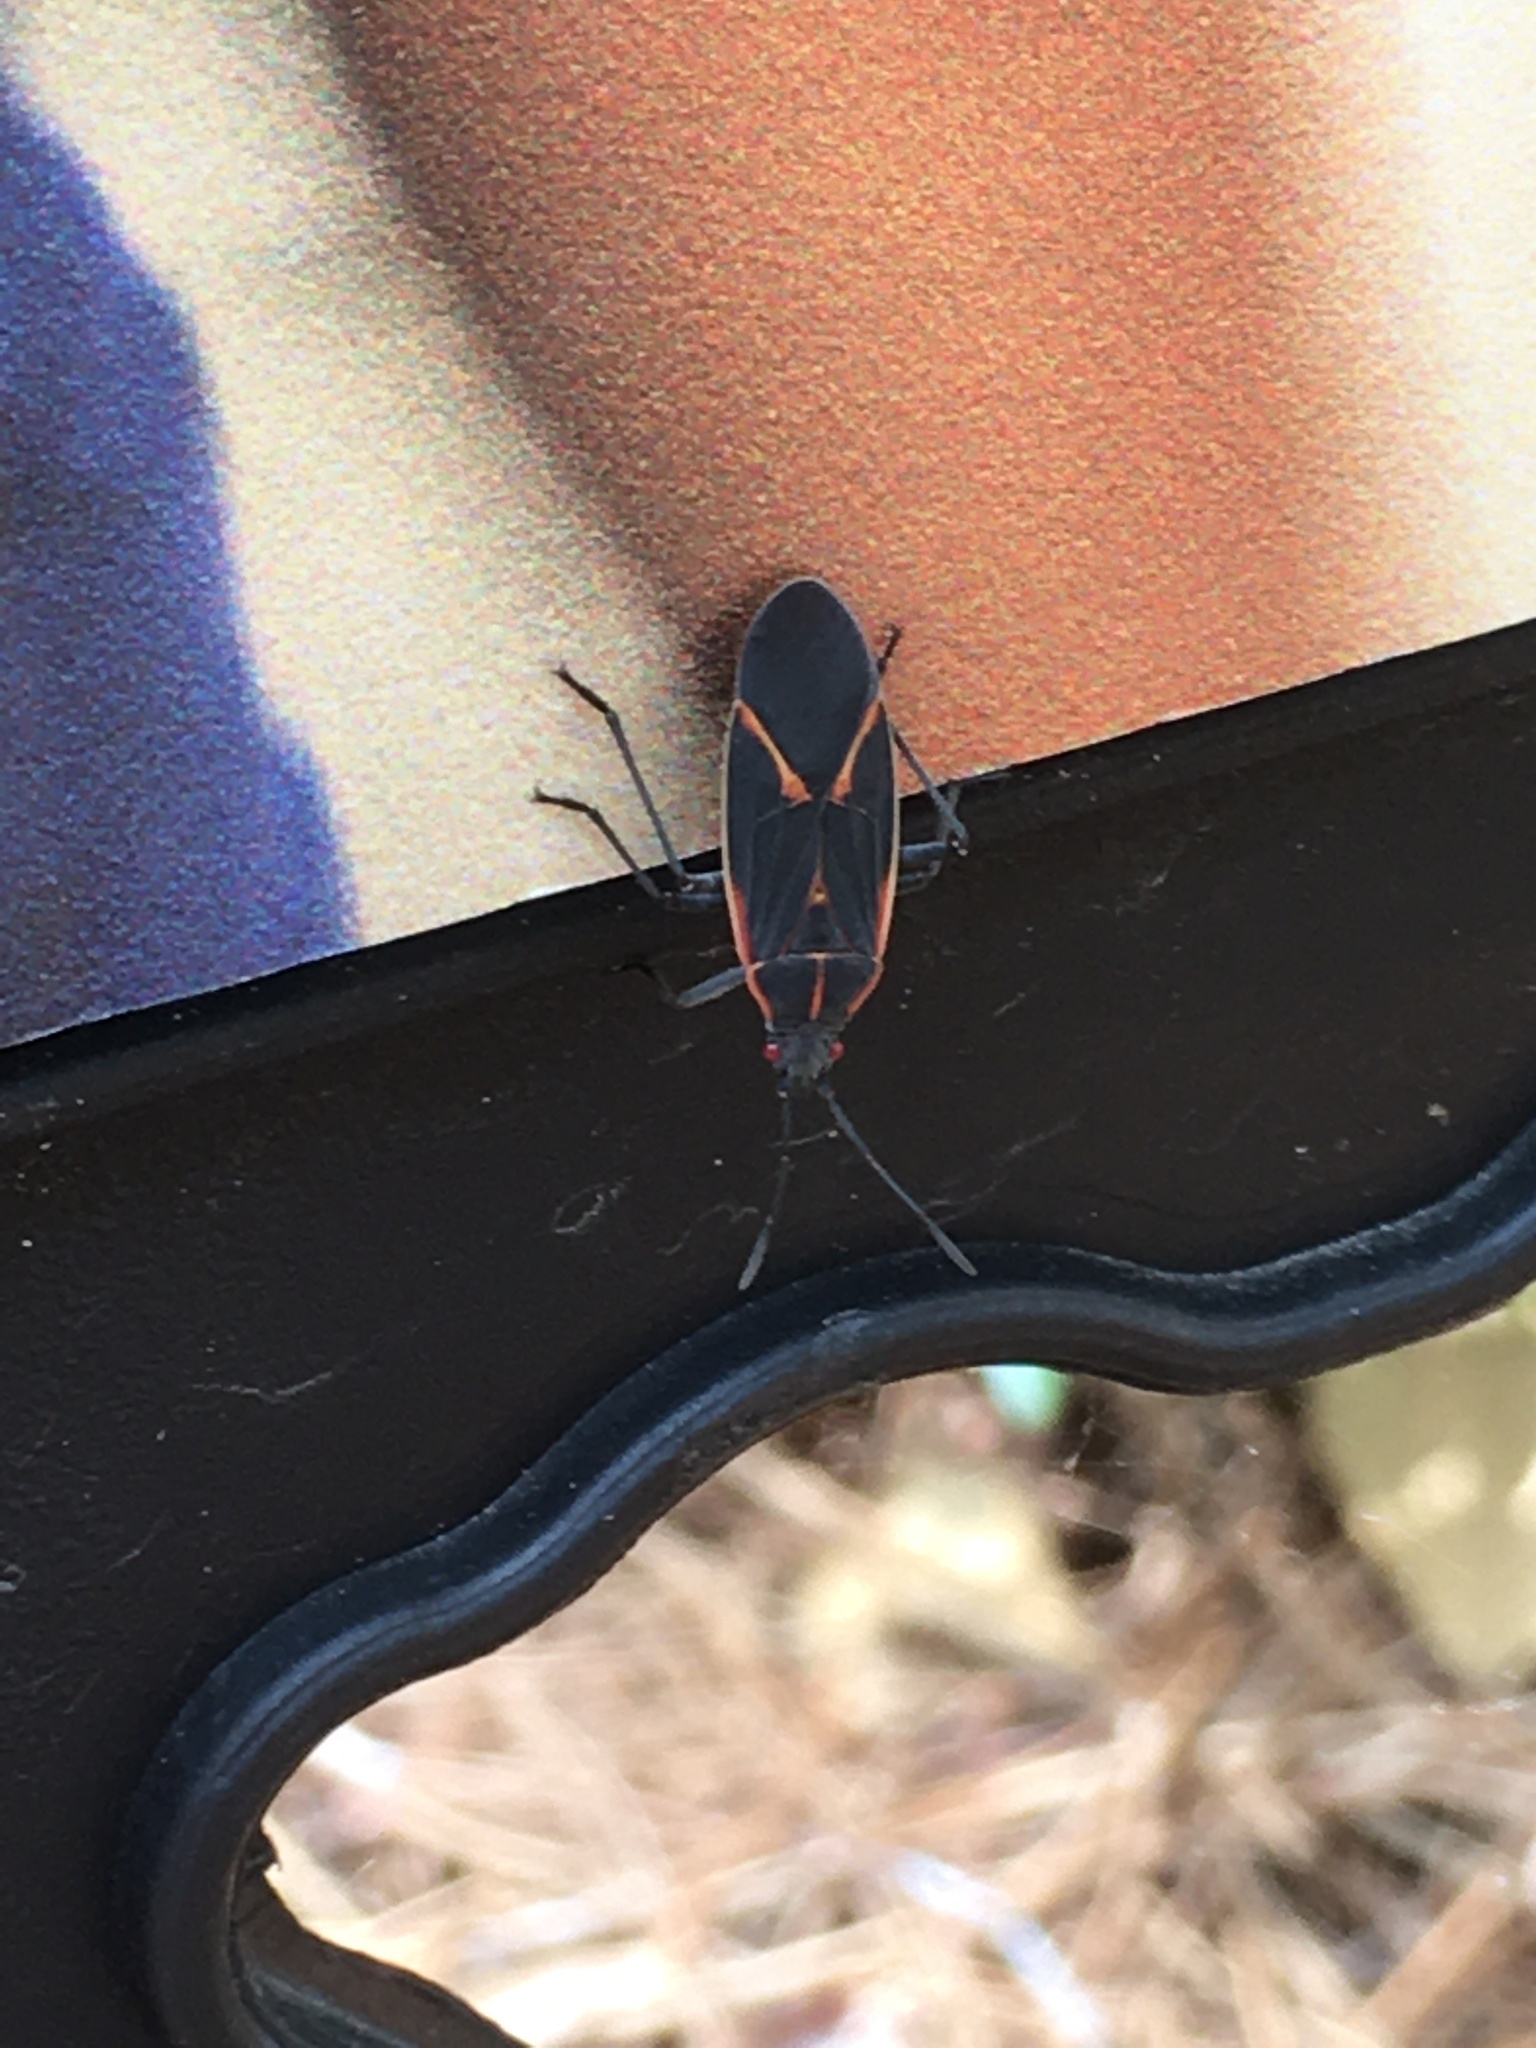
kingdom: Animalia
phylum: Arthropoda
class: Insecta
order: Hemiptera
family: Rhopalidae
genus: Boisea
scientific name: Boisea trivittata
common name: Boxelder bug
